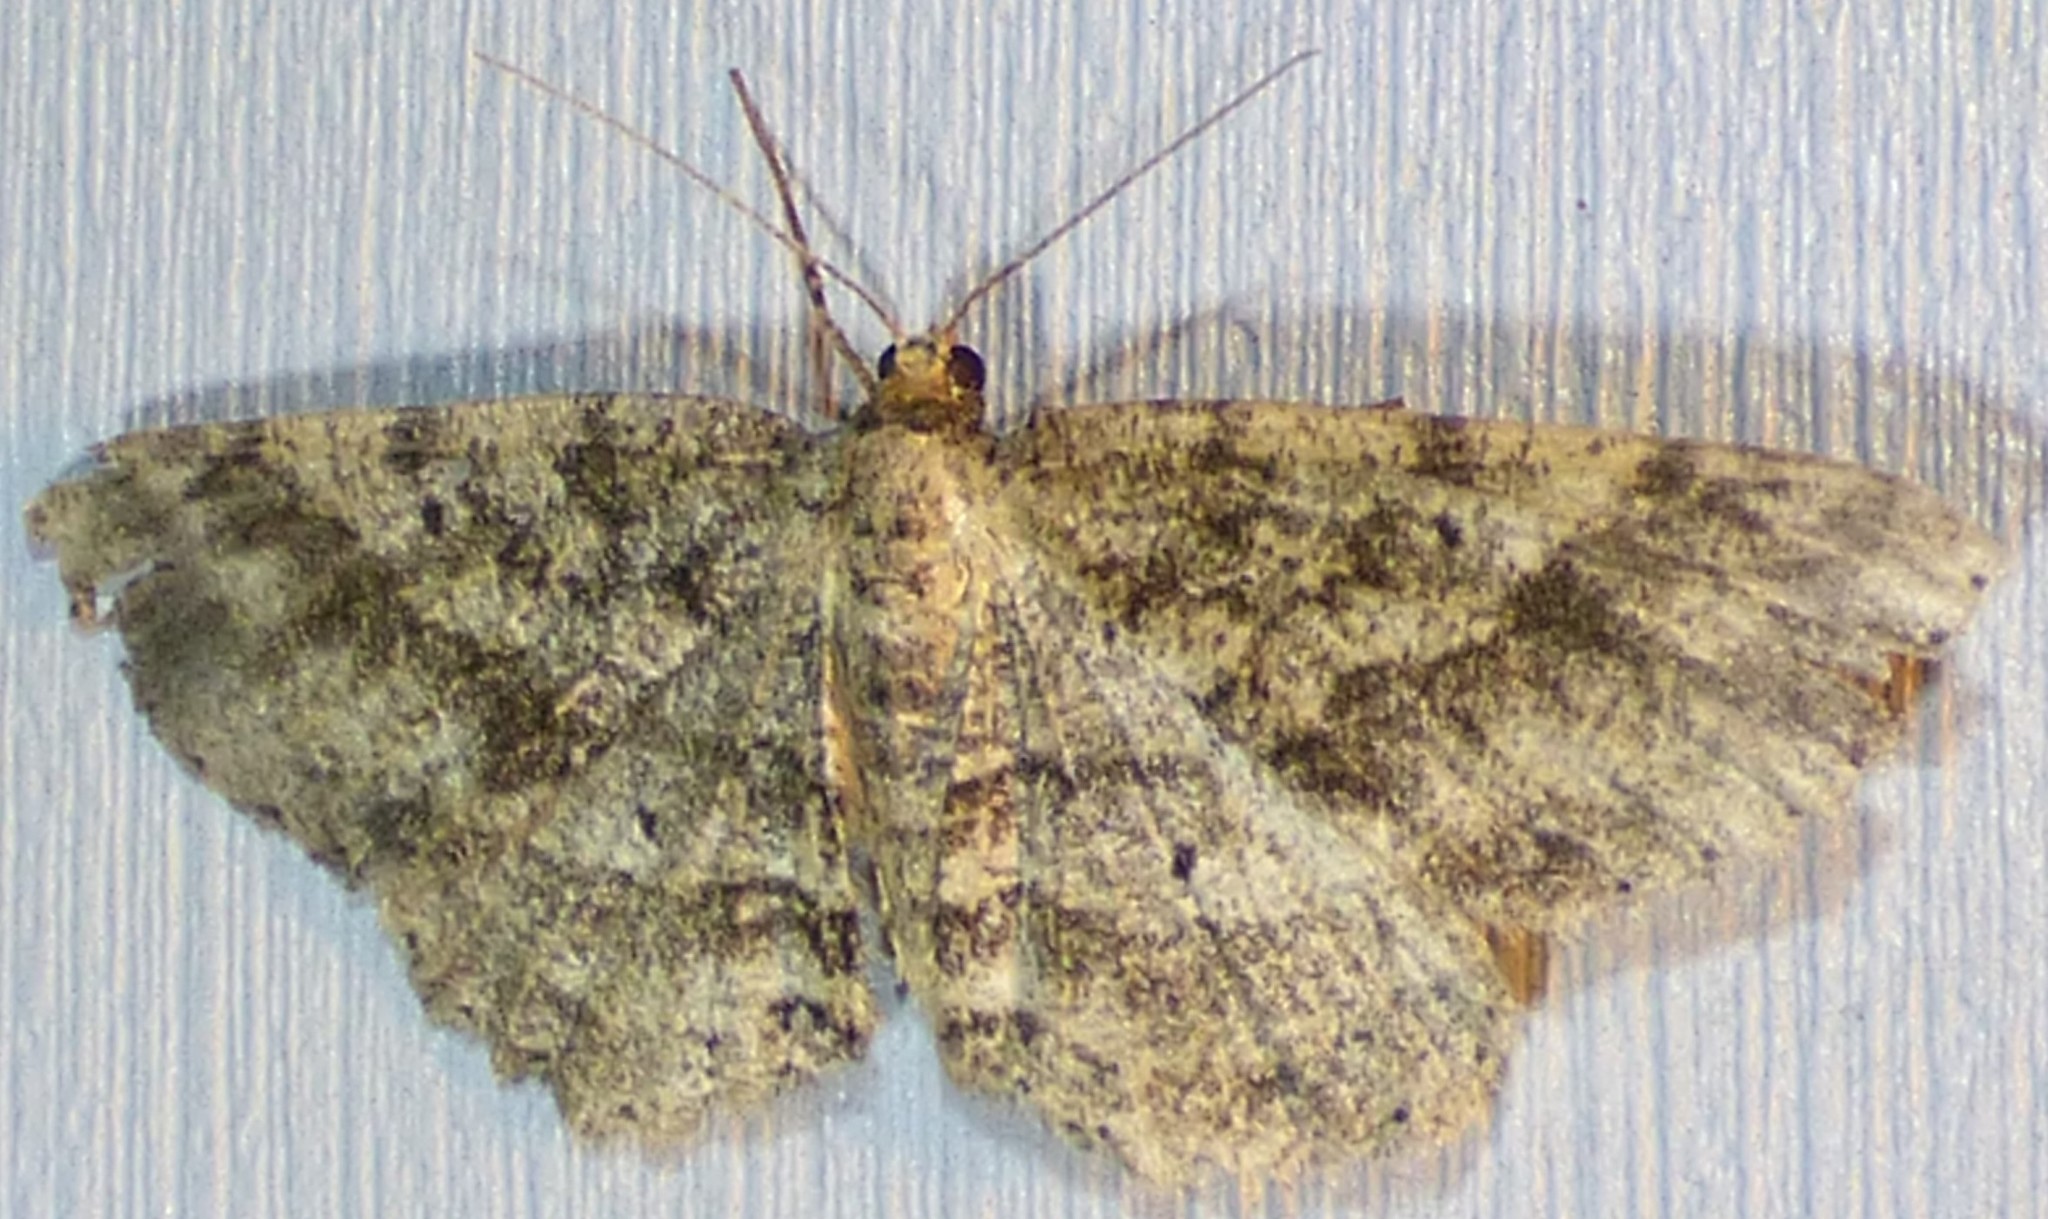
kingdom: Animalia
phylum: Arthropoda
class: Insecta
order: Lepidoptera
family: Geometridae
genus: Melanolophia
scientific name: Melanolophia canadaria
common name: Canadian melanolophia
